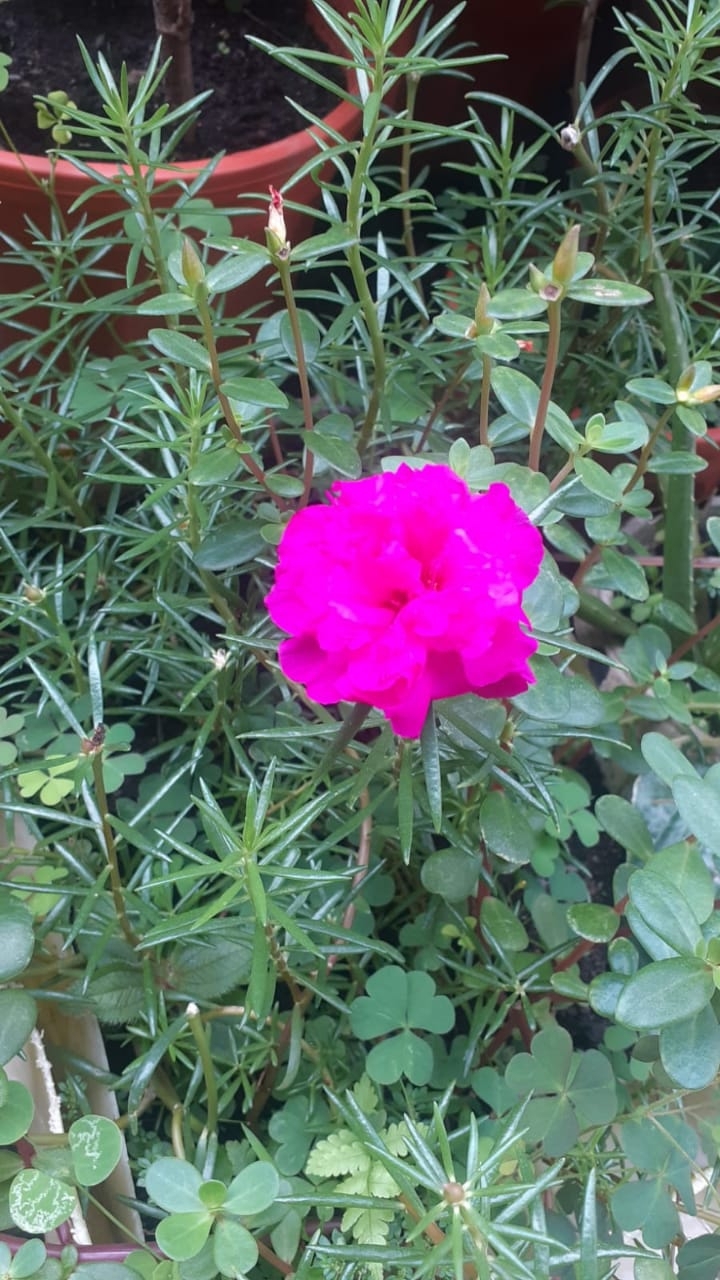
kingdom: Plantae
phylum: Tracheophyta
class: Magnoliopsida
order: Caryophyllales
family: Portulacaceae
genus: Portulaca
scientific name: Portulaca grandiflora
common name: Moss-rose
